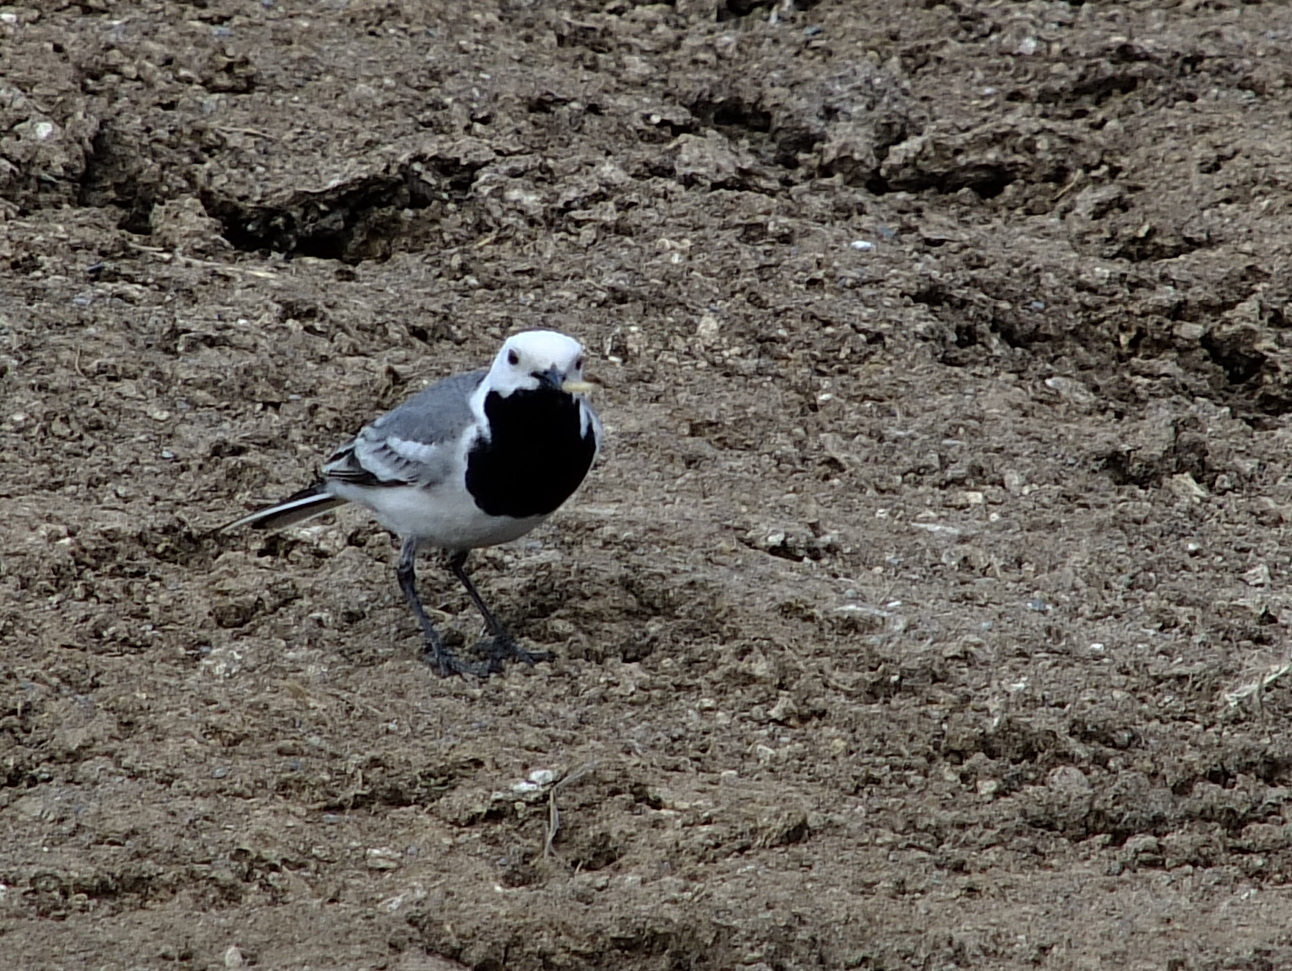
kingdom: Animalia
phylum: Chordata
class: Aves
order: Passeriformes
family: Motacillidae
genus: Motacilla
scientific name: Motacilla alba
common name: White wagtail
